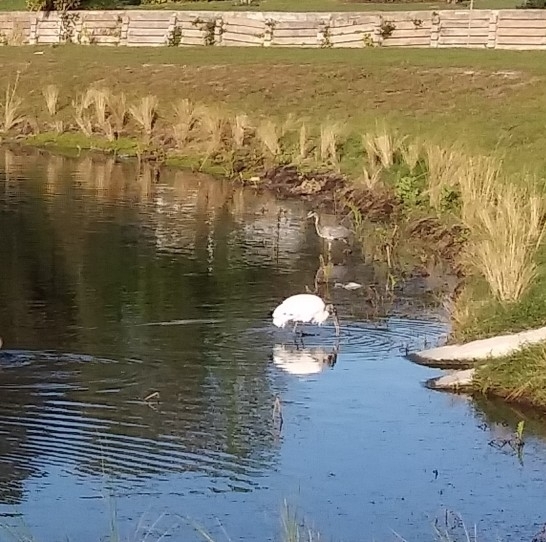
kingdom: Animalia
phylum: Chordata
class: Aves
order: Ciconiiformes
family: Ciconiidae
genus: Mycteria
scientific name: Mycteria americana
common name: Wood stork
